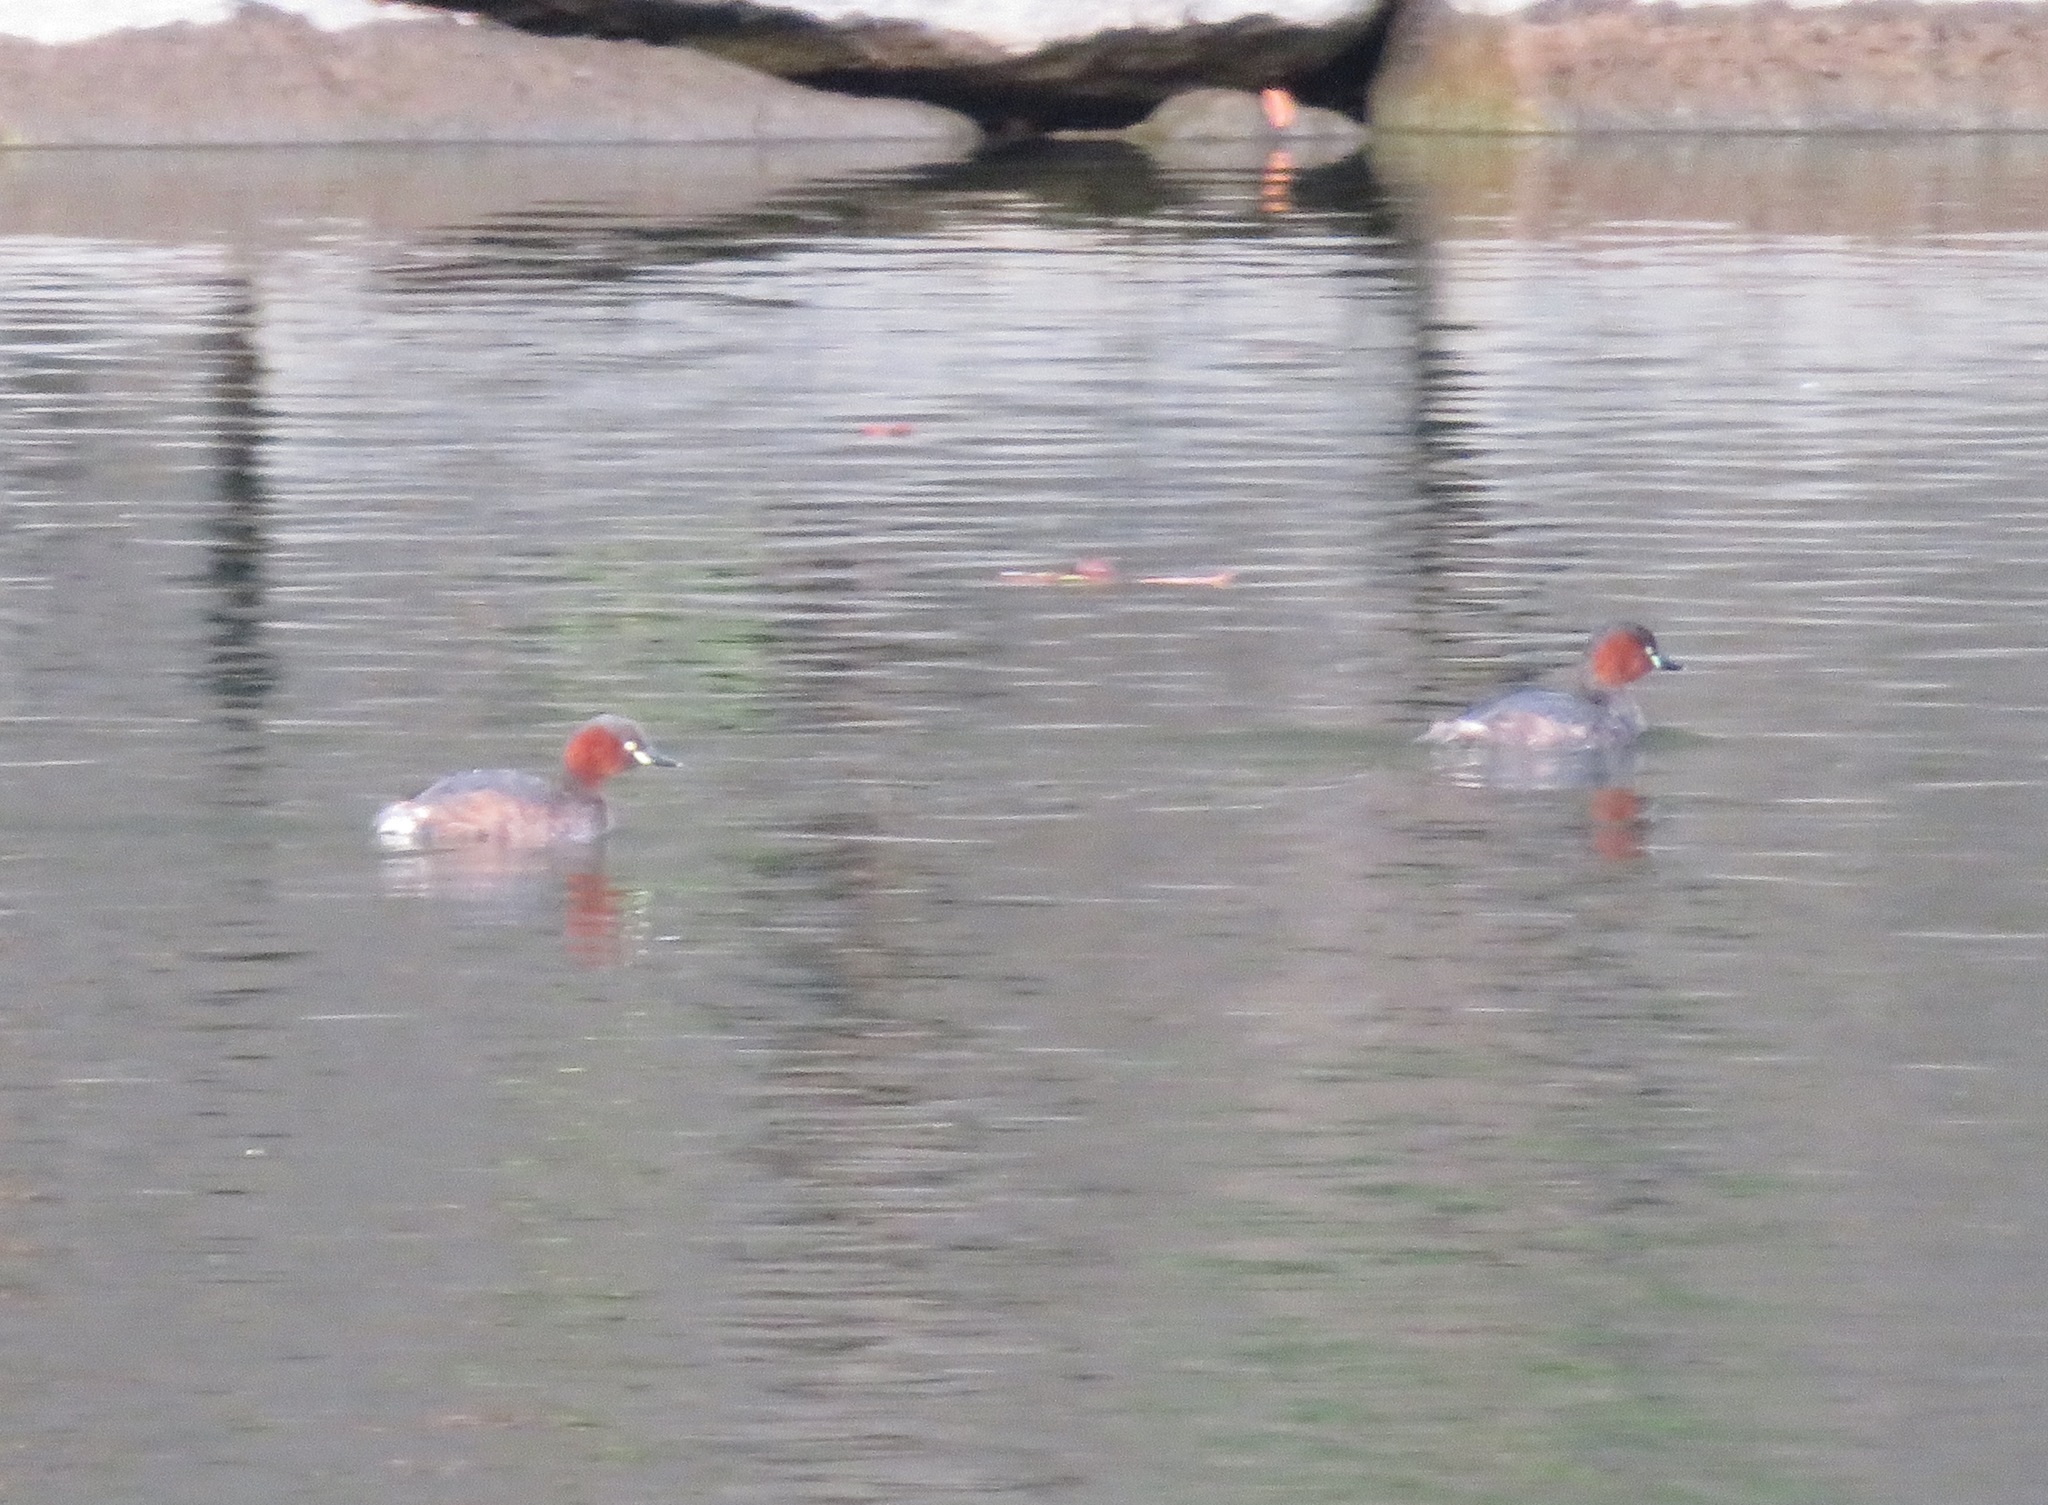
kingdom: Animalia
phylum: Chordata
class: Aves
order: Podicipediformes
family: Podicipedidae
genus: Tachybaptus
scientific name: Tachybaptus ruficollis
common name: Little grebe
